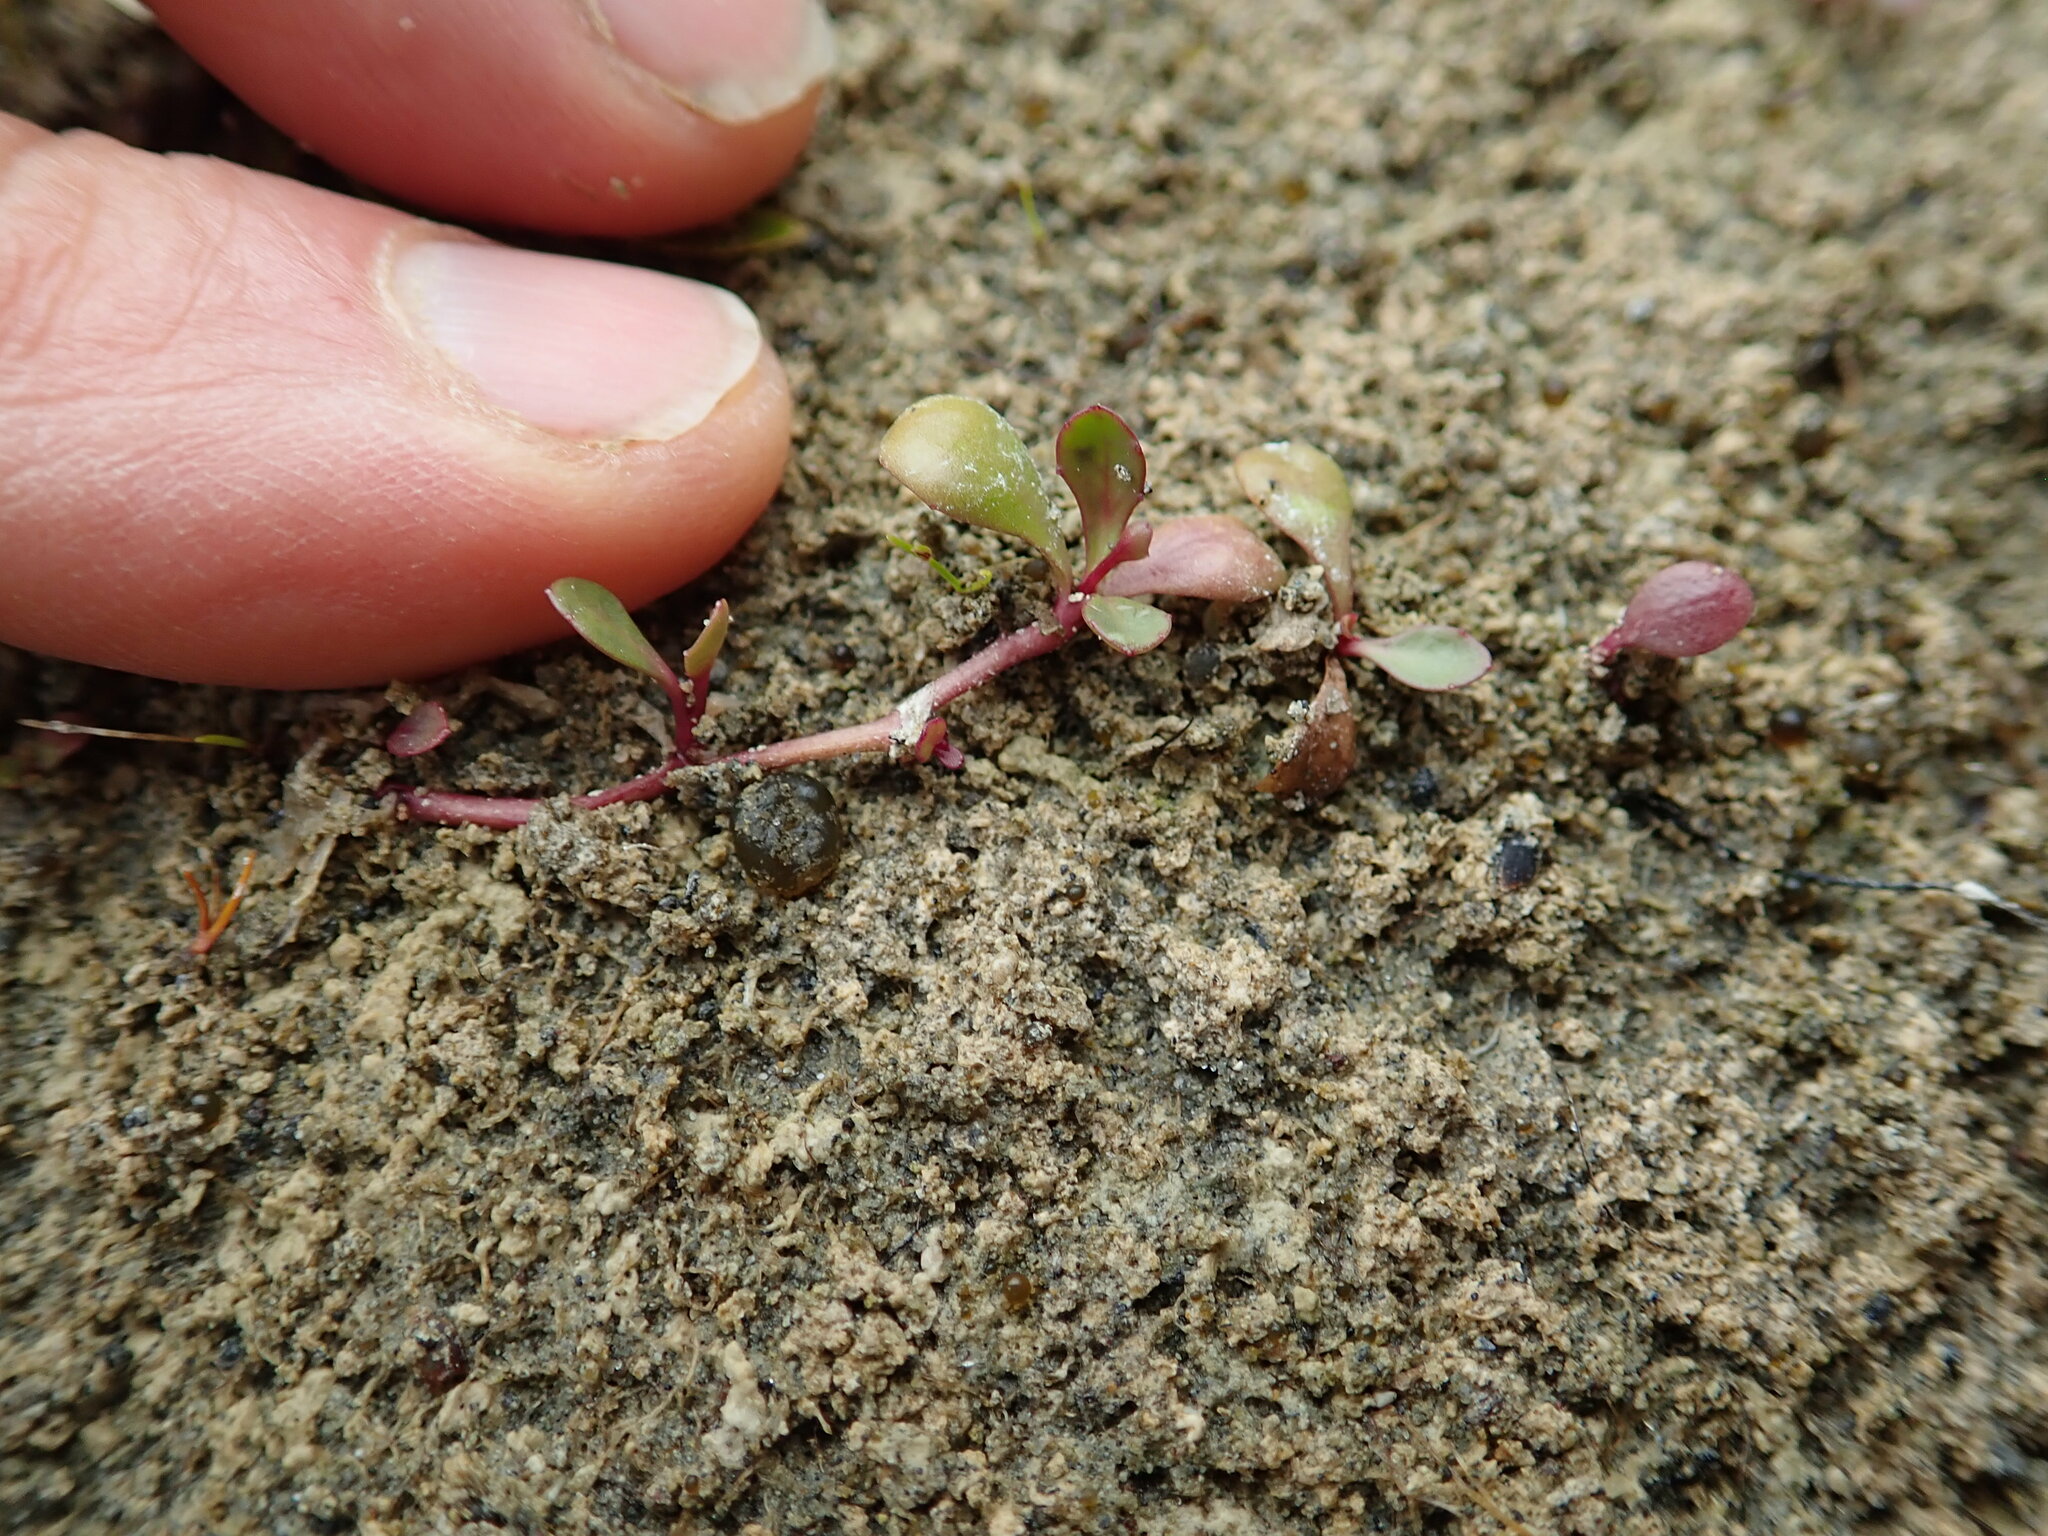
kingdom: Plantae
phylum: Tracheophyta
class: Magnoliopsida
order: Asterales
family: Campanulaceae
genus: Lobelia
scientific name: Lobelia anceps
